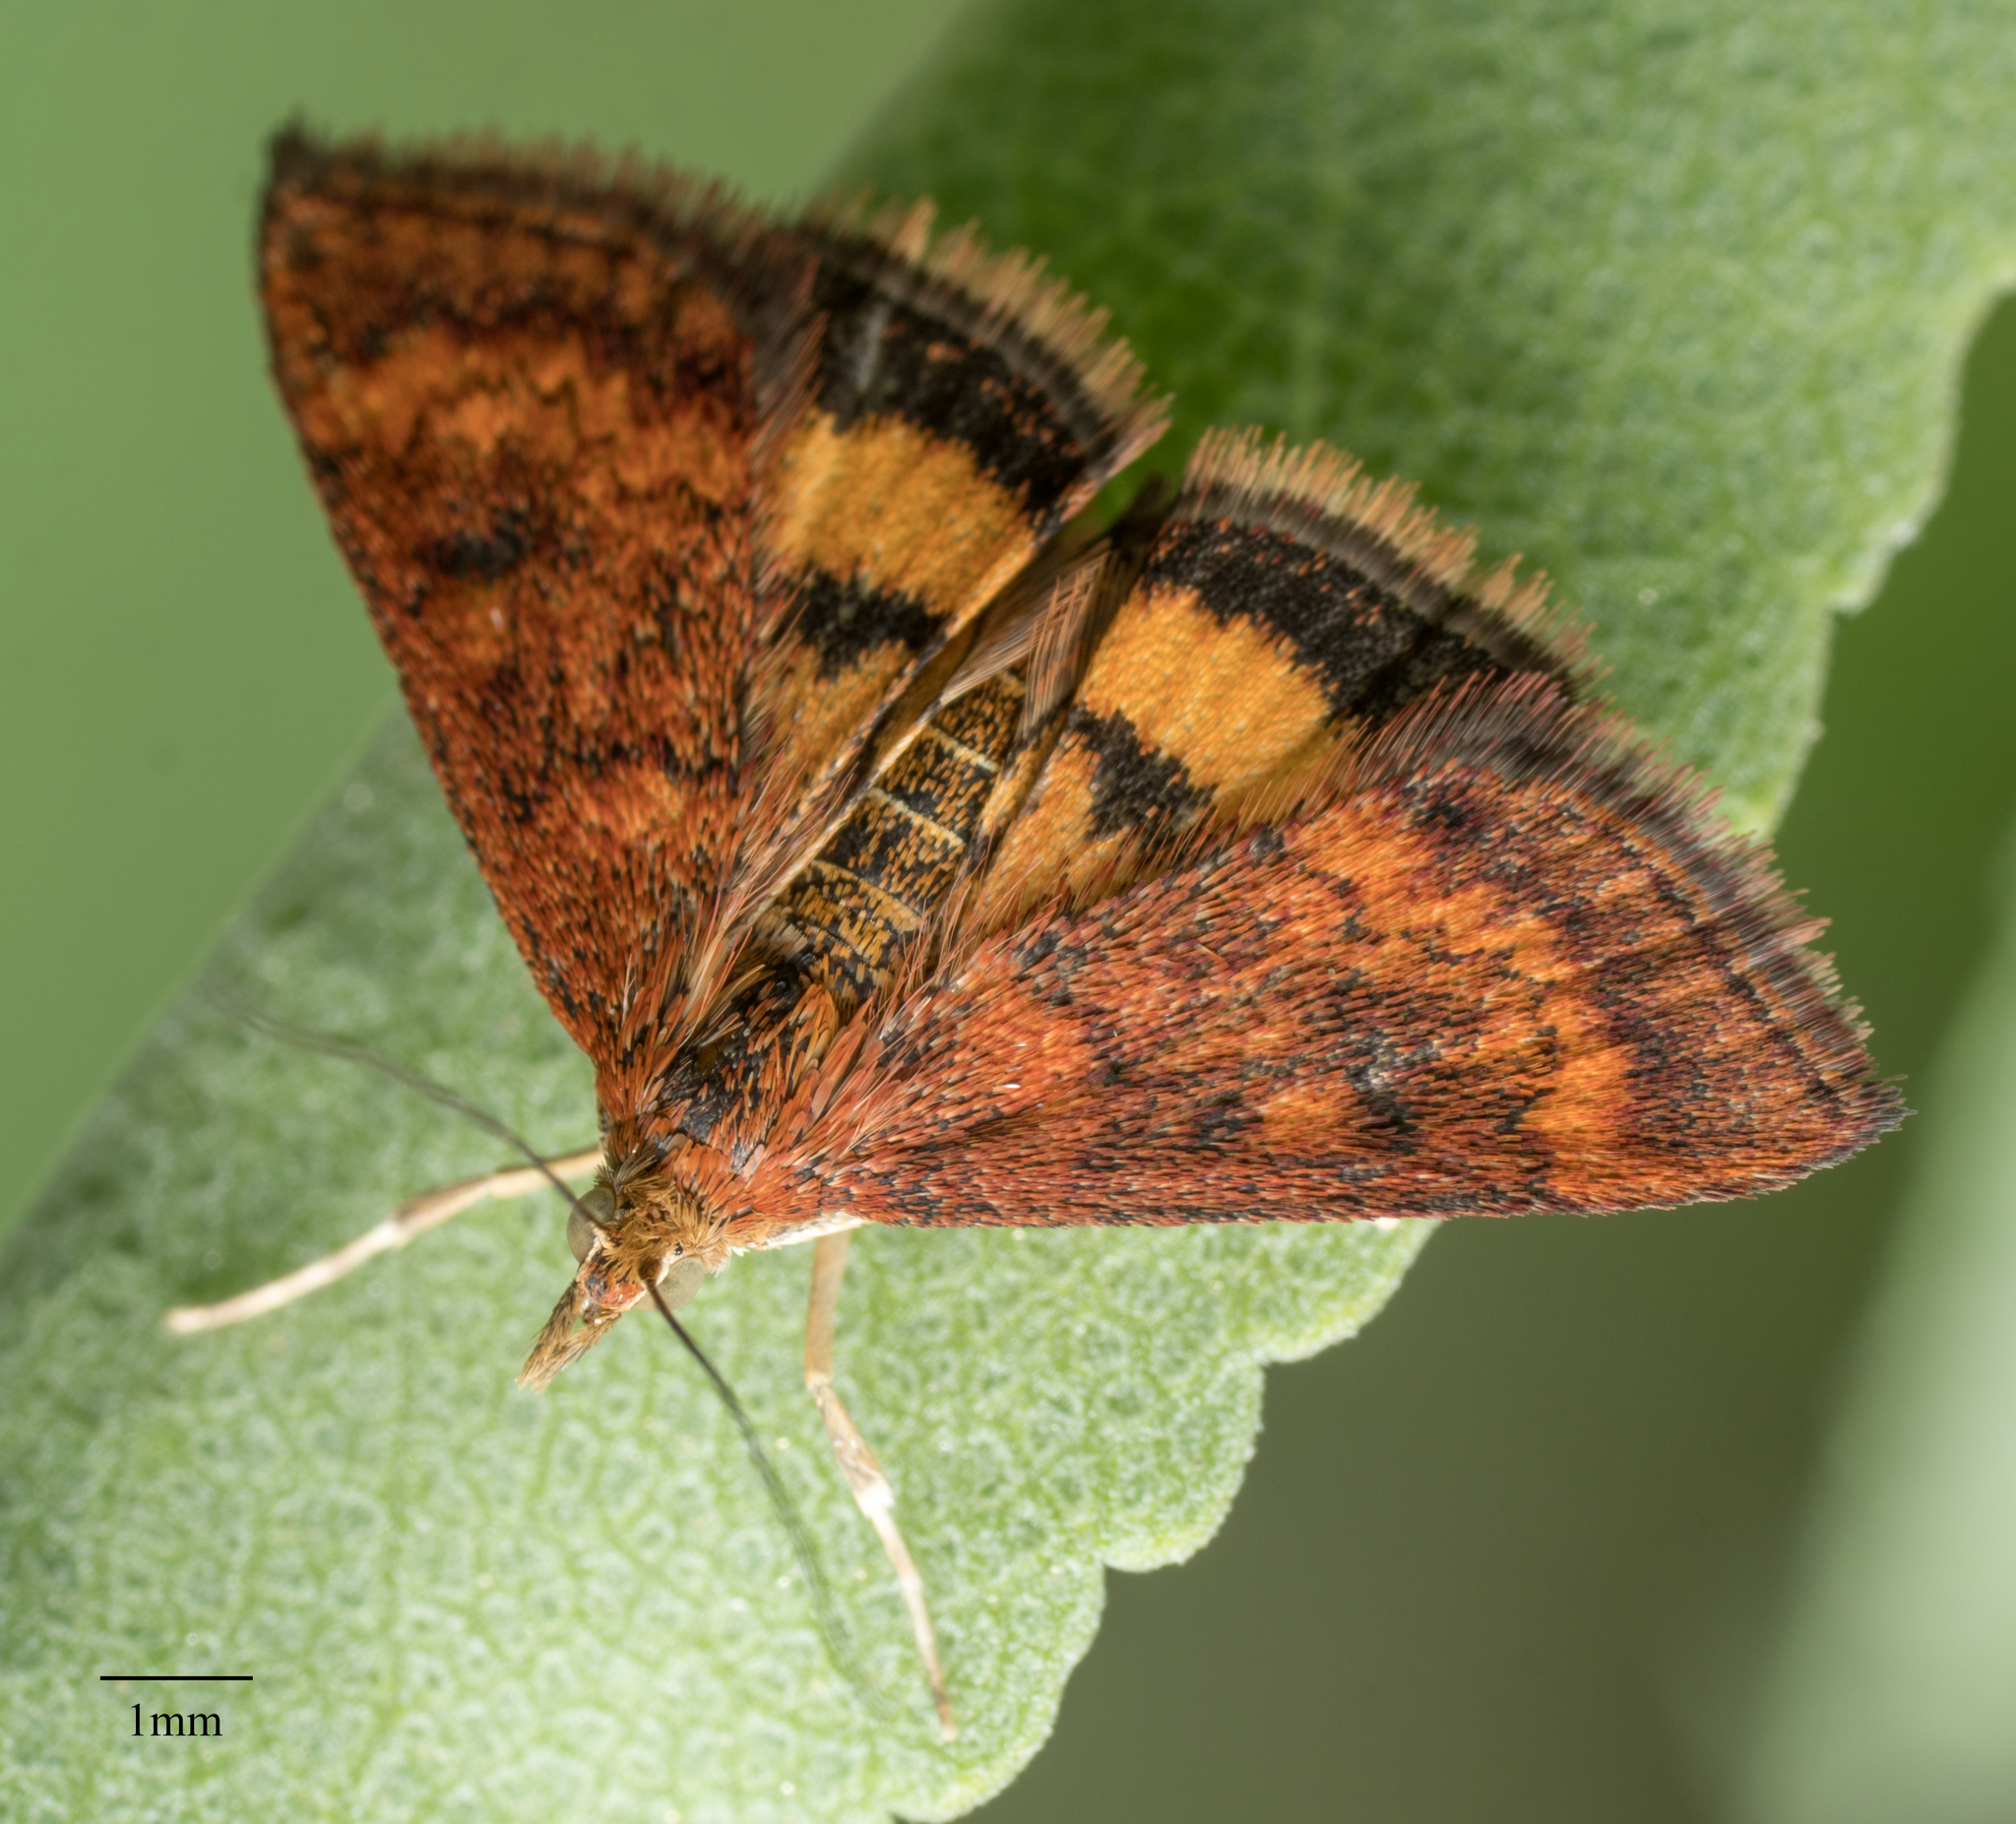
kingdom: Animalia
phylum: Arthropoda
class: Insecta
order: Lepidoptera
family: Crambidae
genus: Pyrausta
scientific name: Pyrausta californicalis
